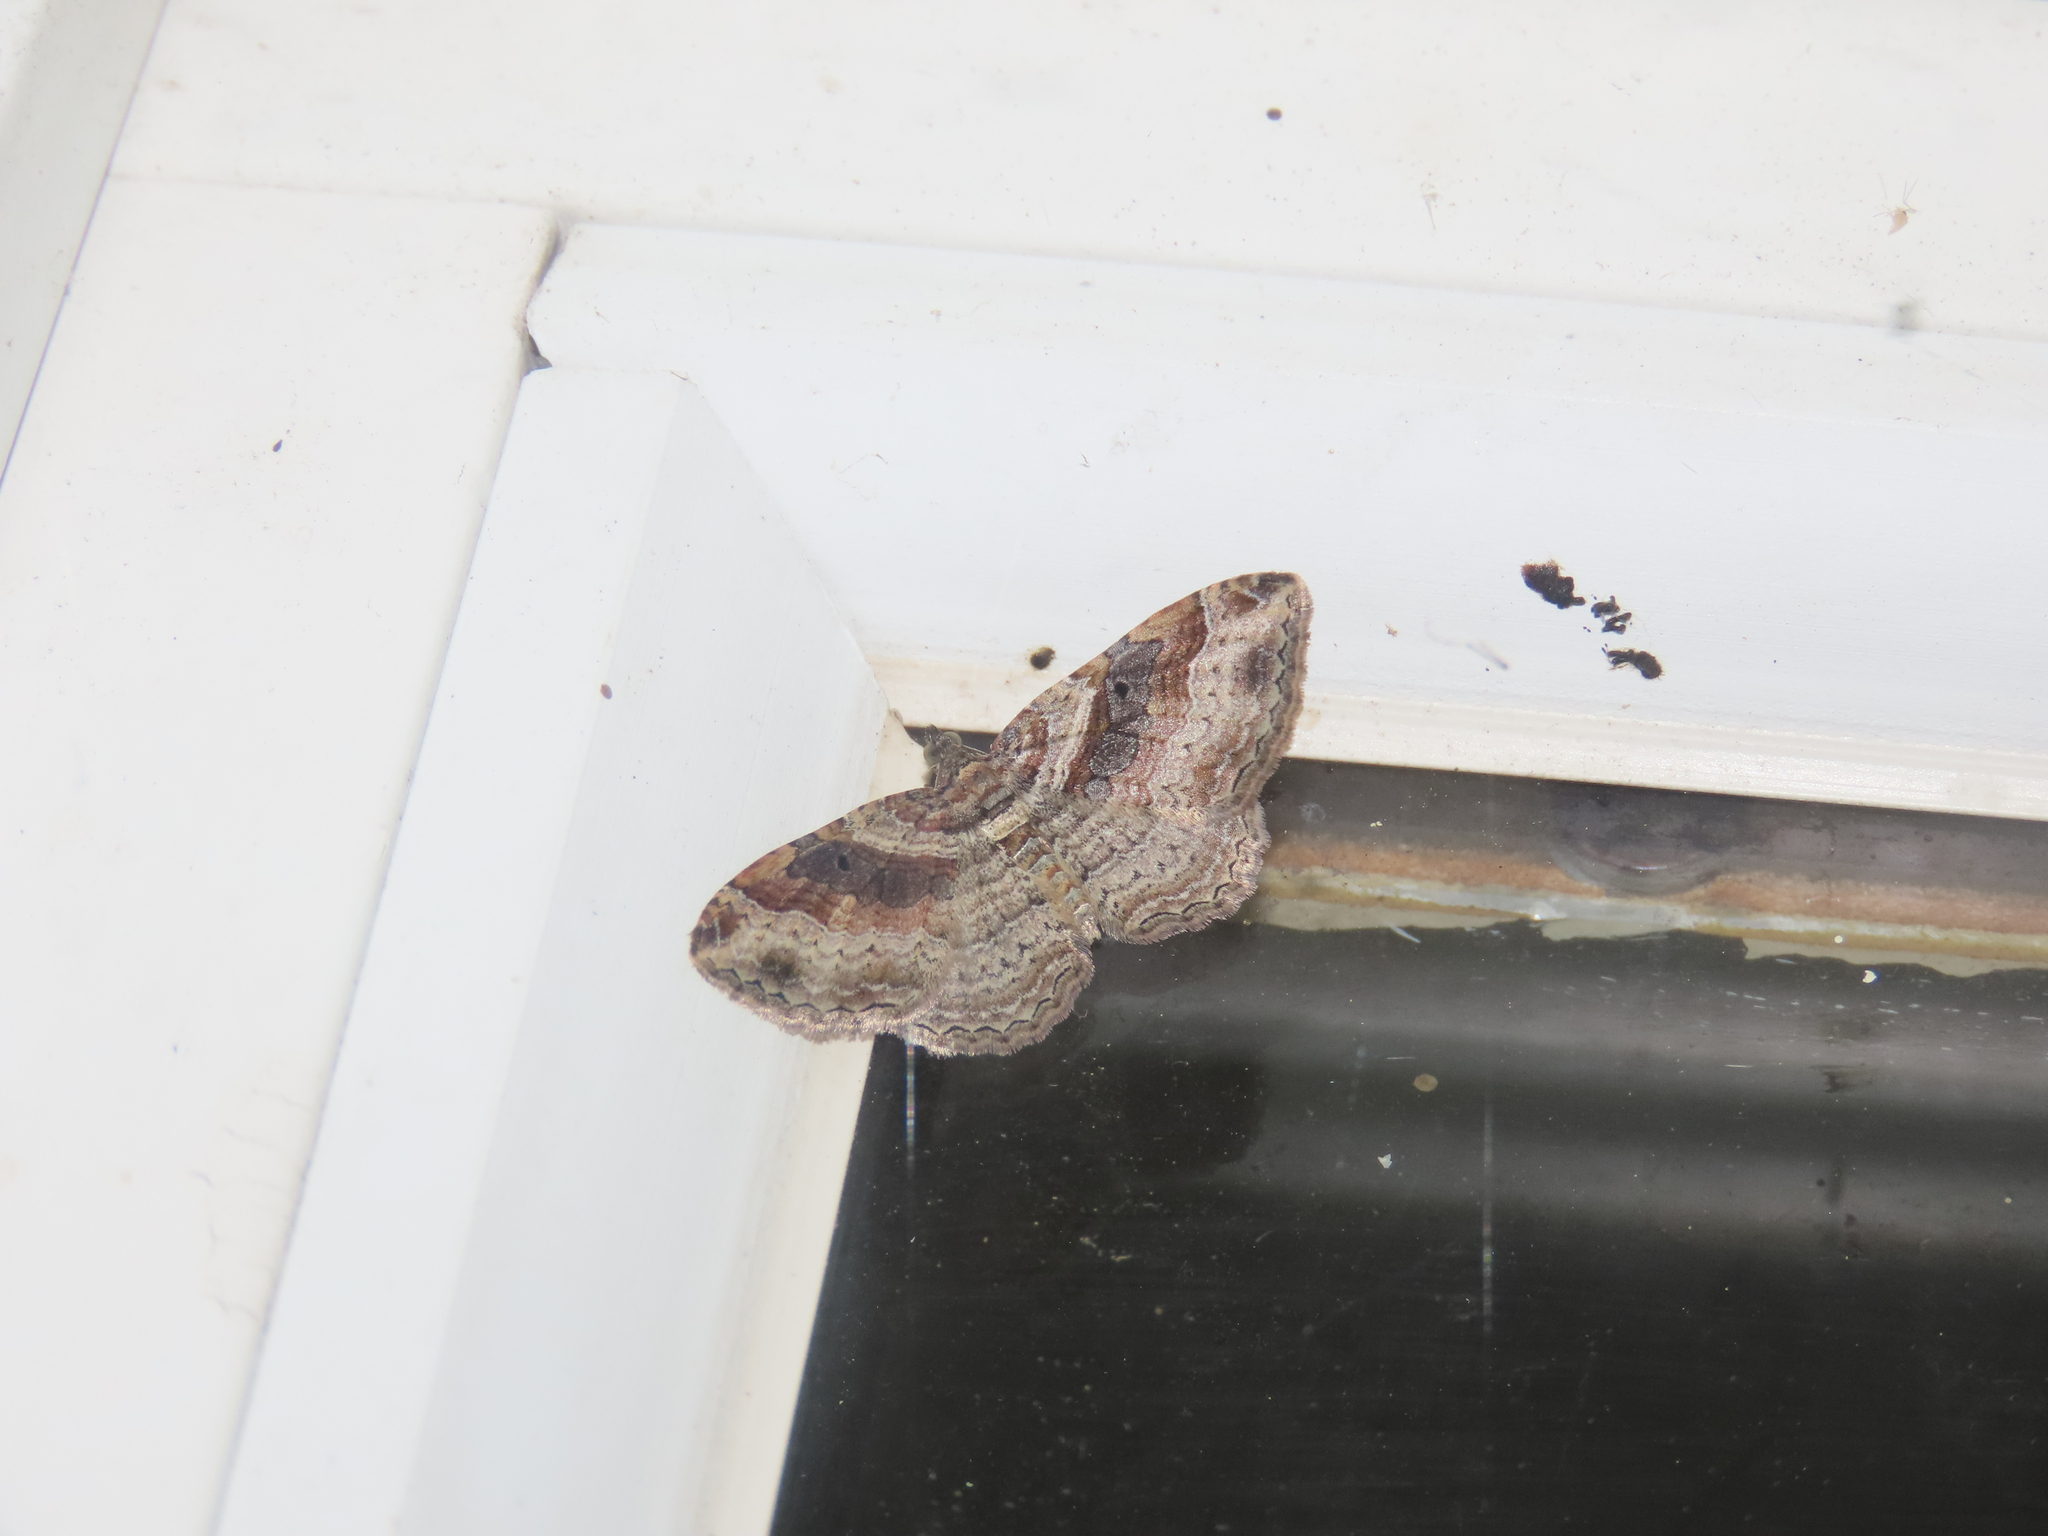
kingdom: Animalia
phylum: Arthropoda
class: Insecta
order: Lepidoptera
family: Geometridae
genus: Costaconvexa
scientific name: Costaconvexa centrostrigaria
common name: Bent-line carpet
